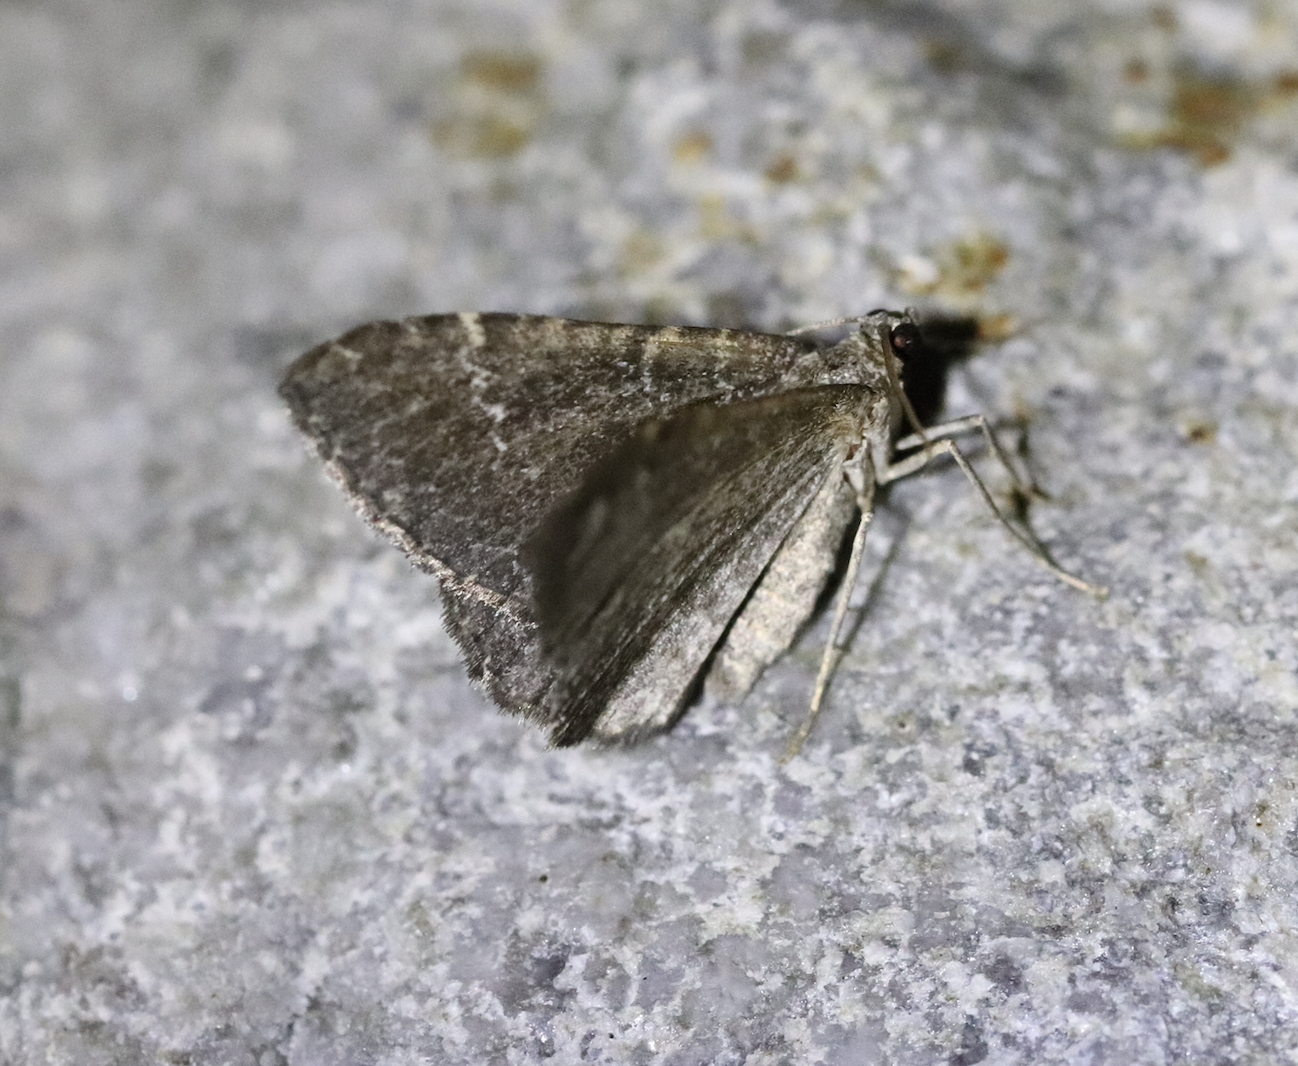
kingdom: Animalia
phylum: Arthropoda
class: Insecta
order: Lepidoptera
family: Geometridae
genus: Cataclysme
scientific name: Cataclysme riguata
